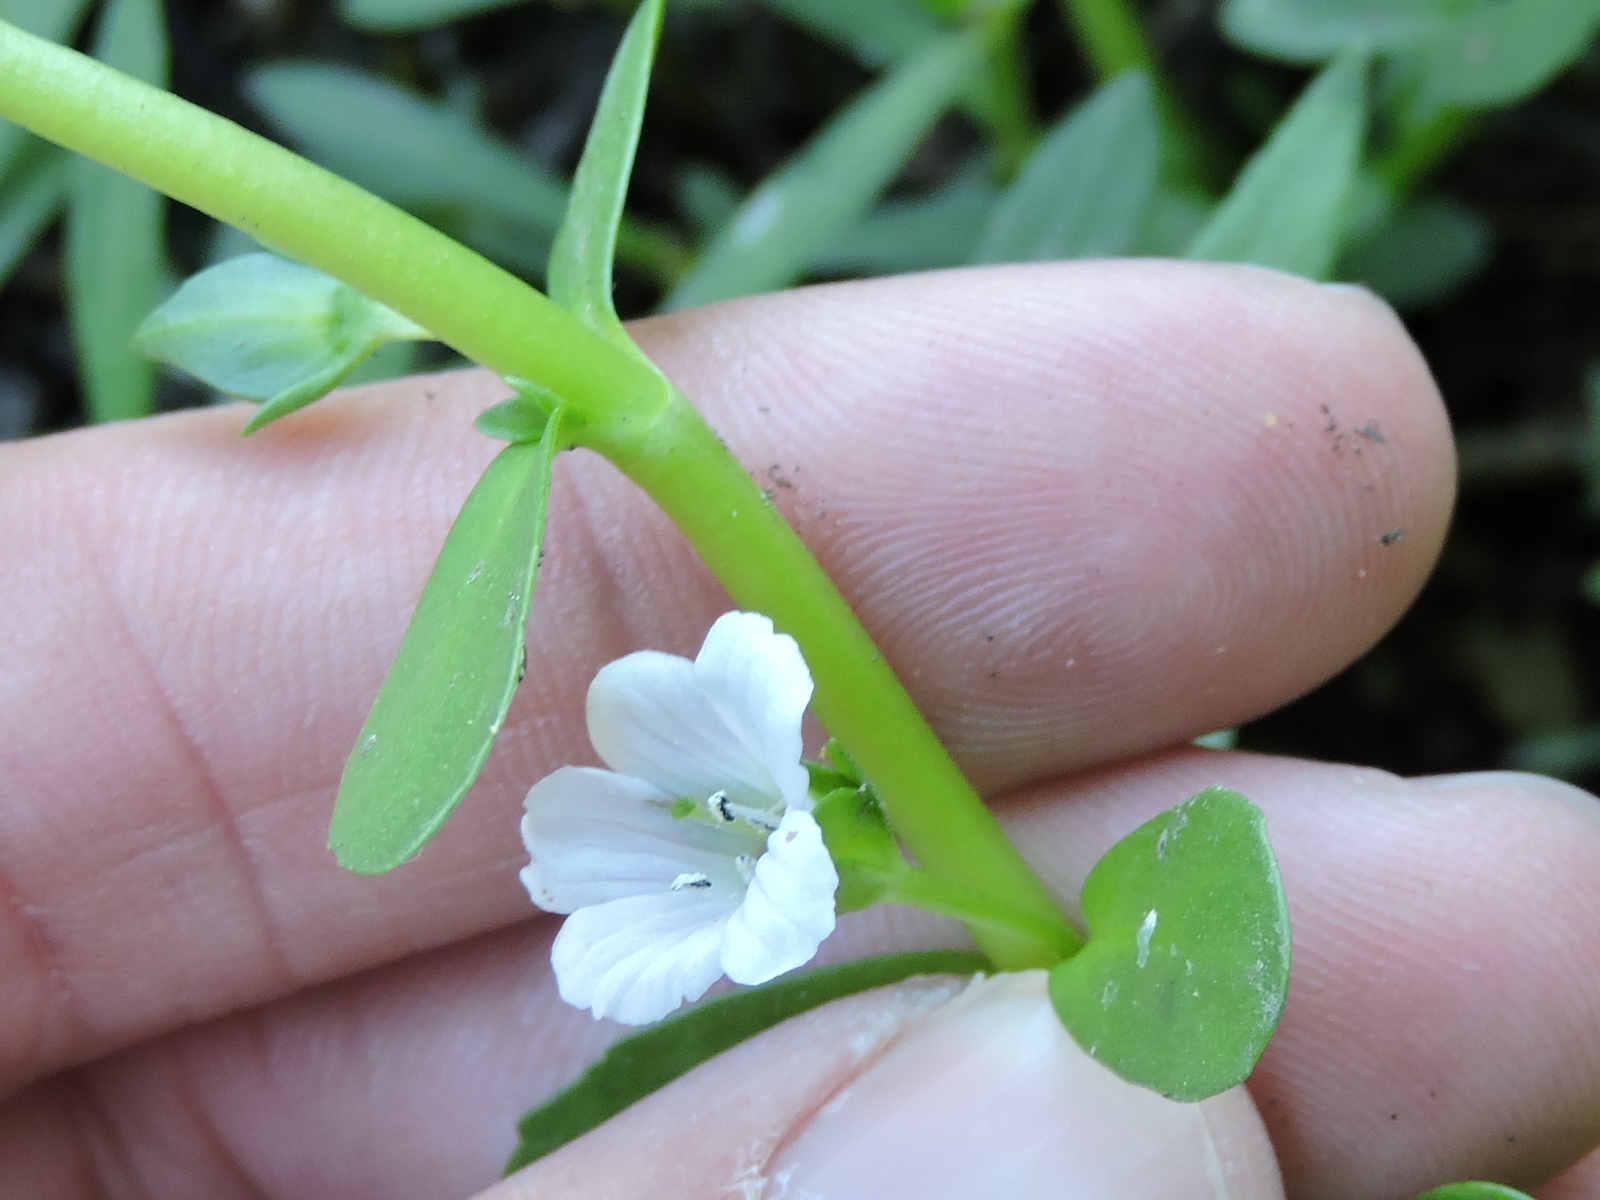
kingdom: Plantae
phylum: Tracheophyta
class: Magnoliopsida
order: Lamiales
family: Plantaginaceae
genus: Bacopa
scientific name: Bacopa monnieri
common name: Indian-pennywort
